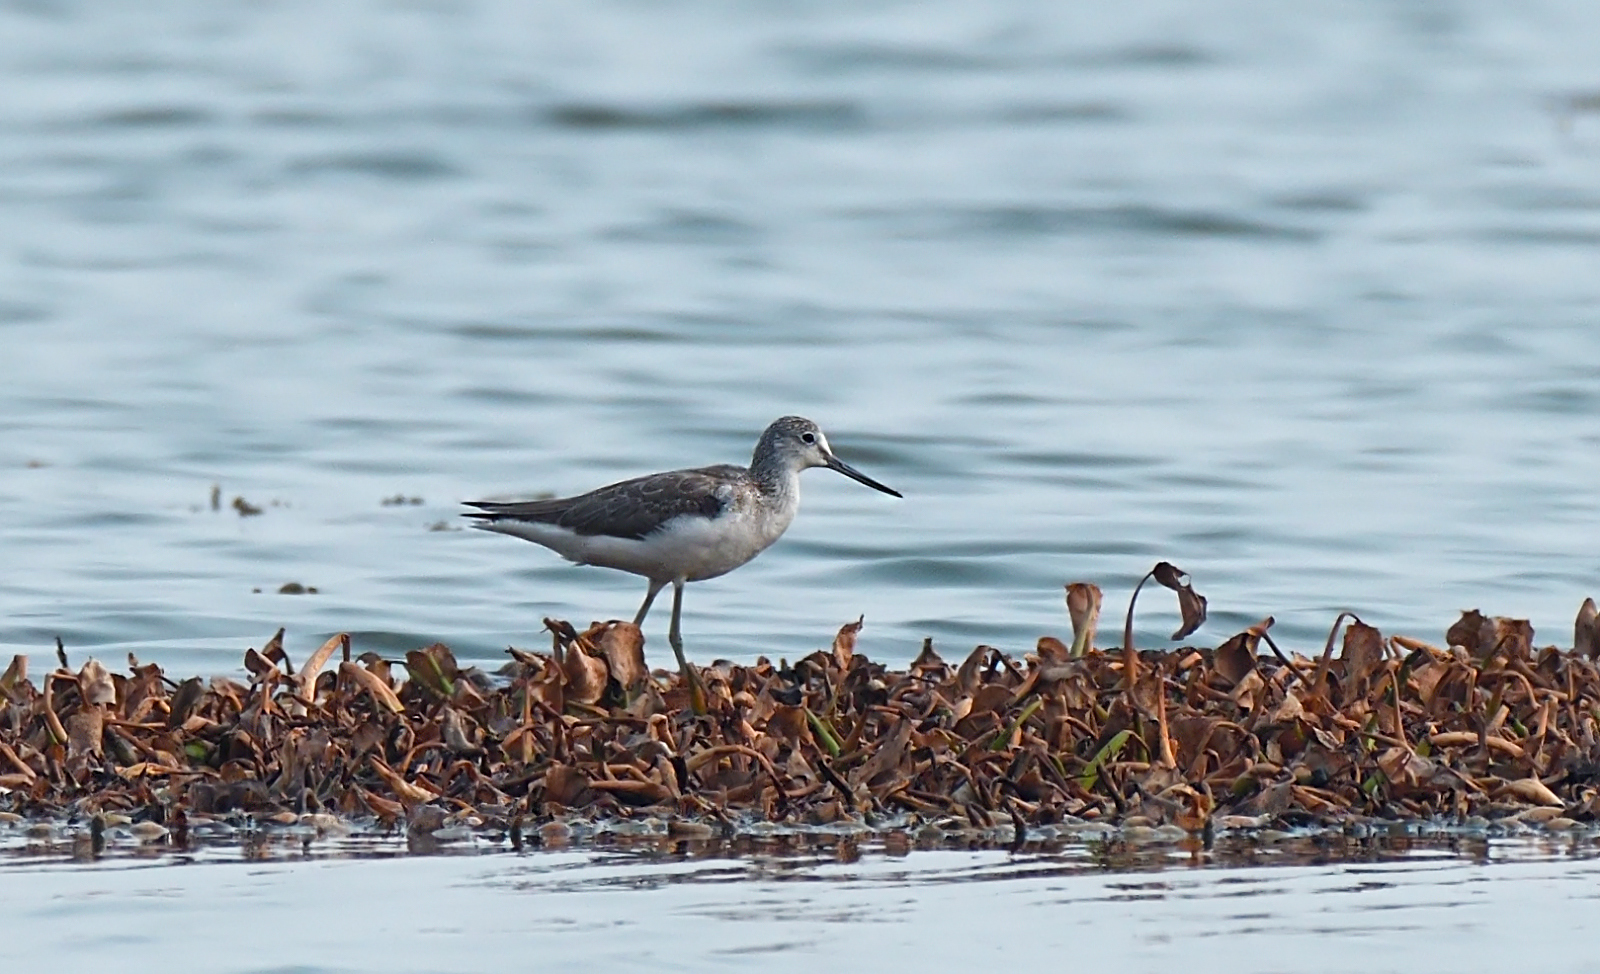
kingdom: Animalia
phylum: Chordata
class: Aves
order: Charadriiformes
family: Scolopacidae
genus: Tringa
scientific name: Tringa nebularia
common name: Common greenshank
